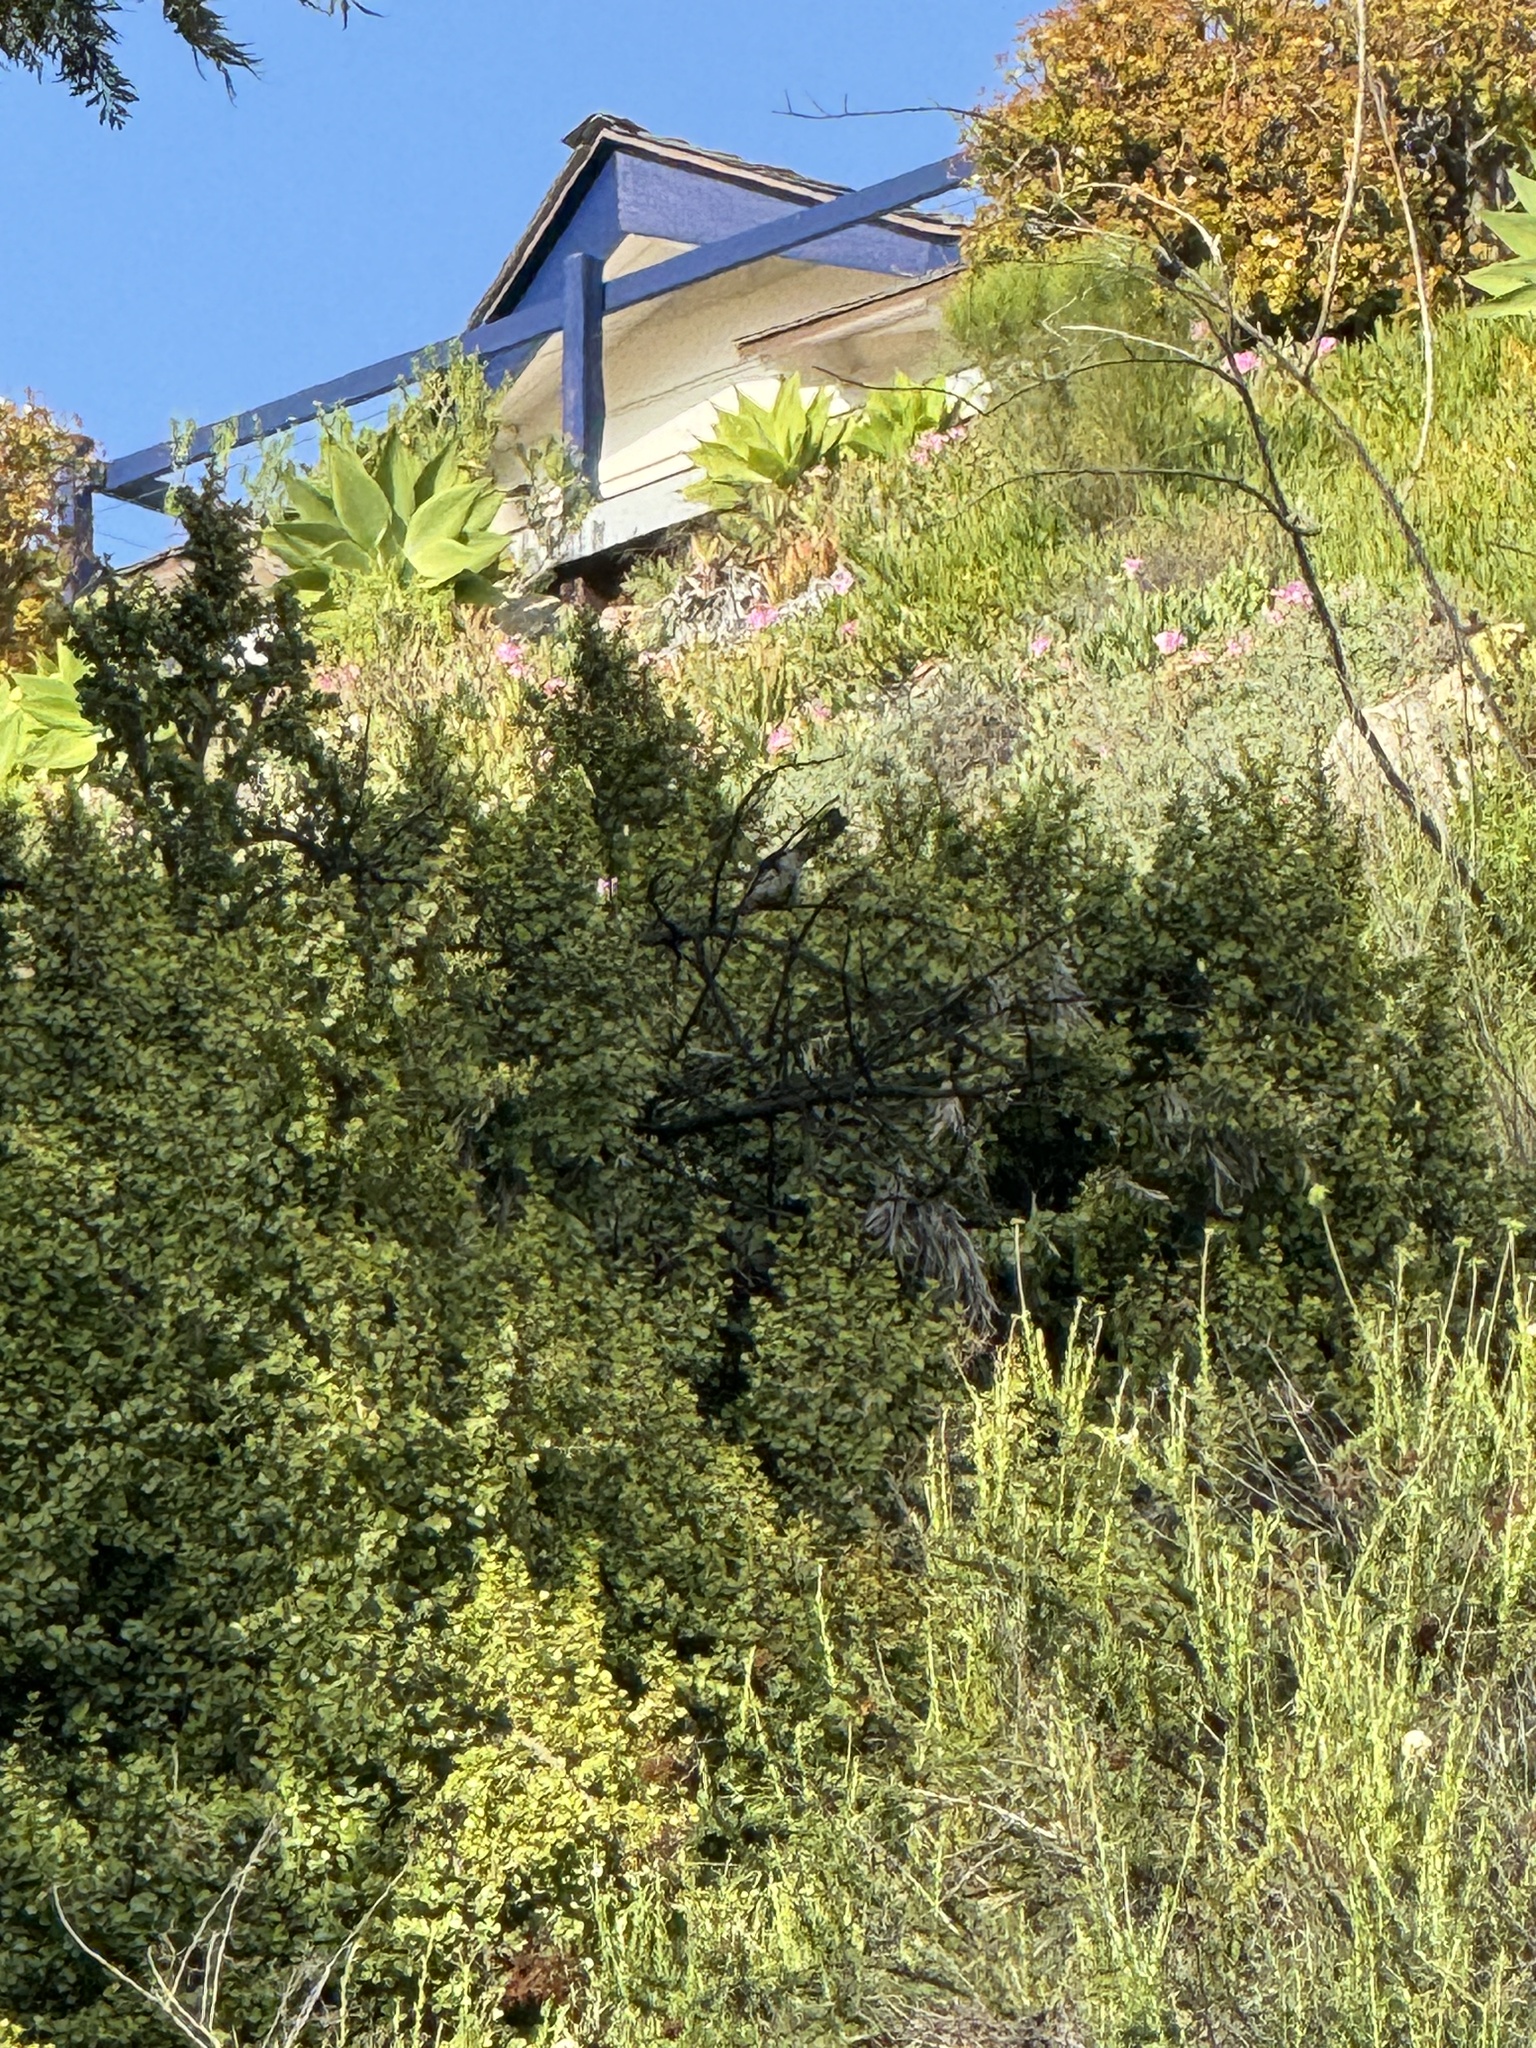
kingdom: Animalia
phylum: Chordata
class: Aves
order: Passeriformes
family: Corvidae
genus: Aphelocoma
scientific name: Aphelocoma californica
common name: California scrub-jay
